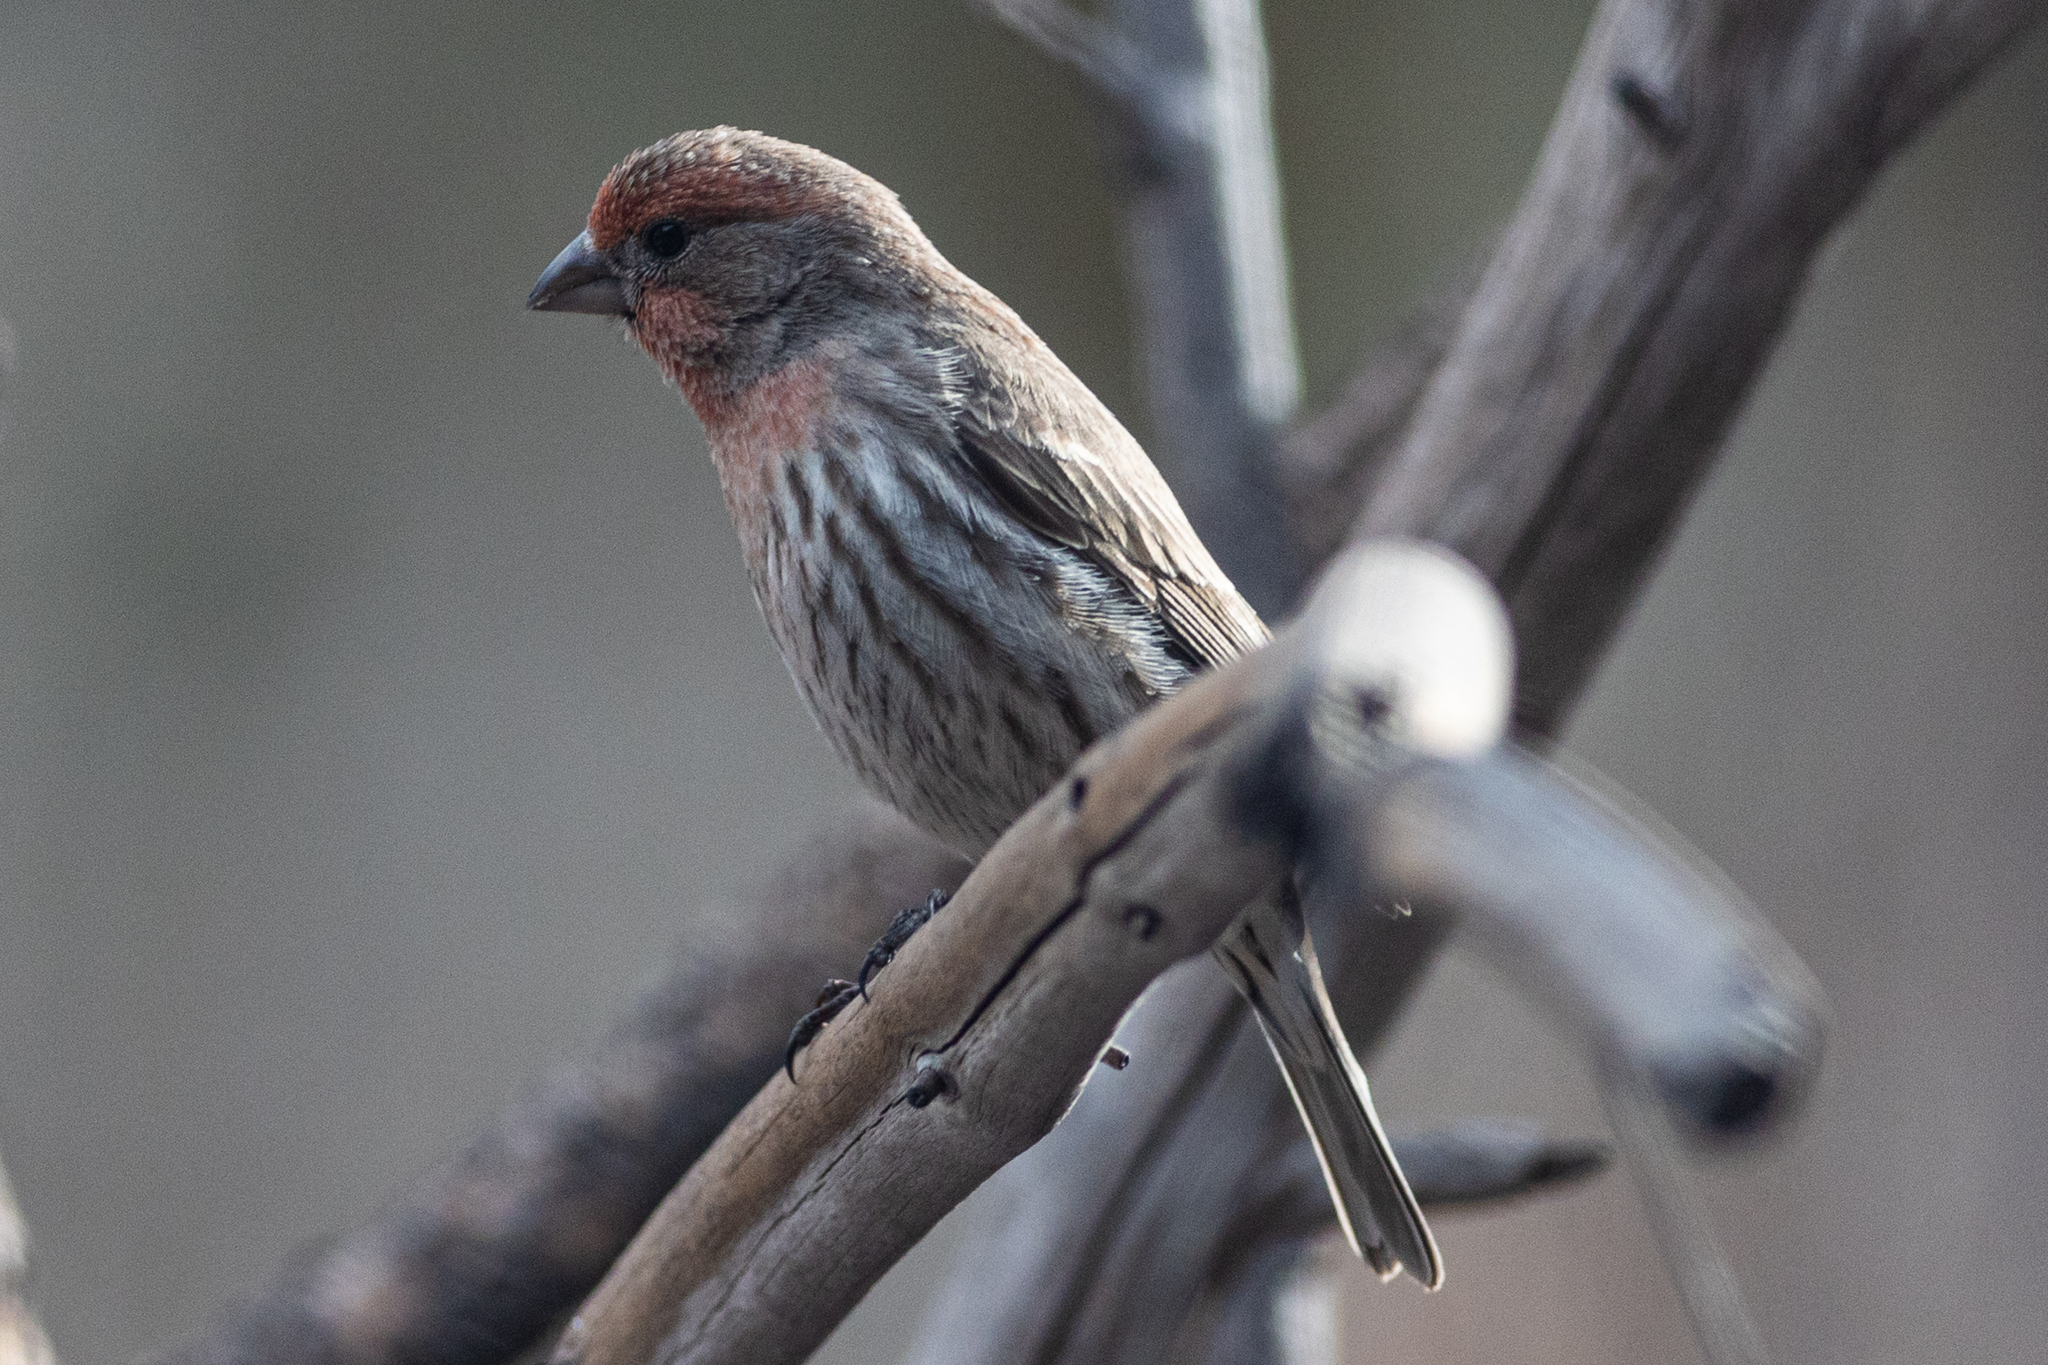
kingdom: Animalia
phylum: Chordata
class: Aves
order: Passeriformes
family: Fringillidae
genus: Haemorhous
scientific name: Haemorhous mexicanus
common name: House finch
